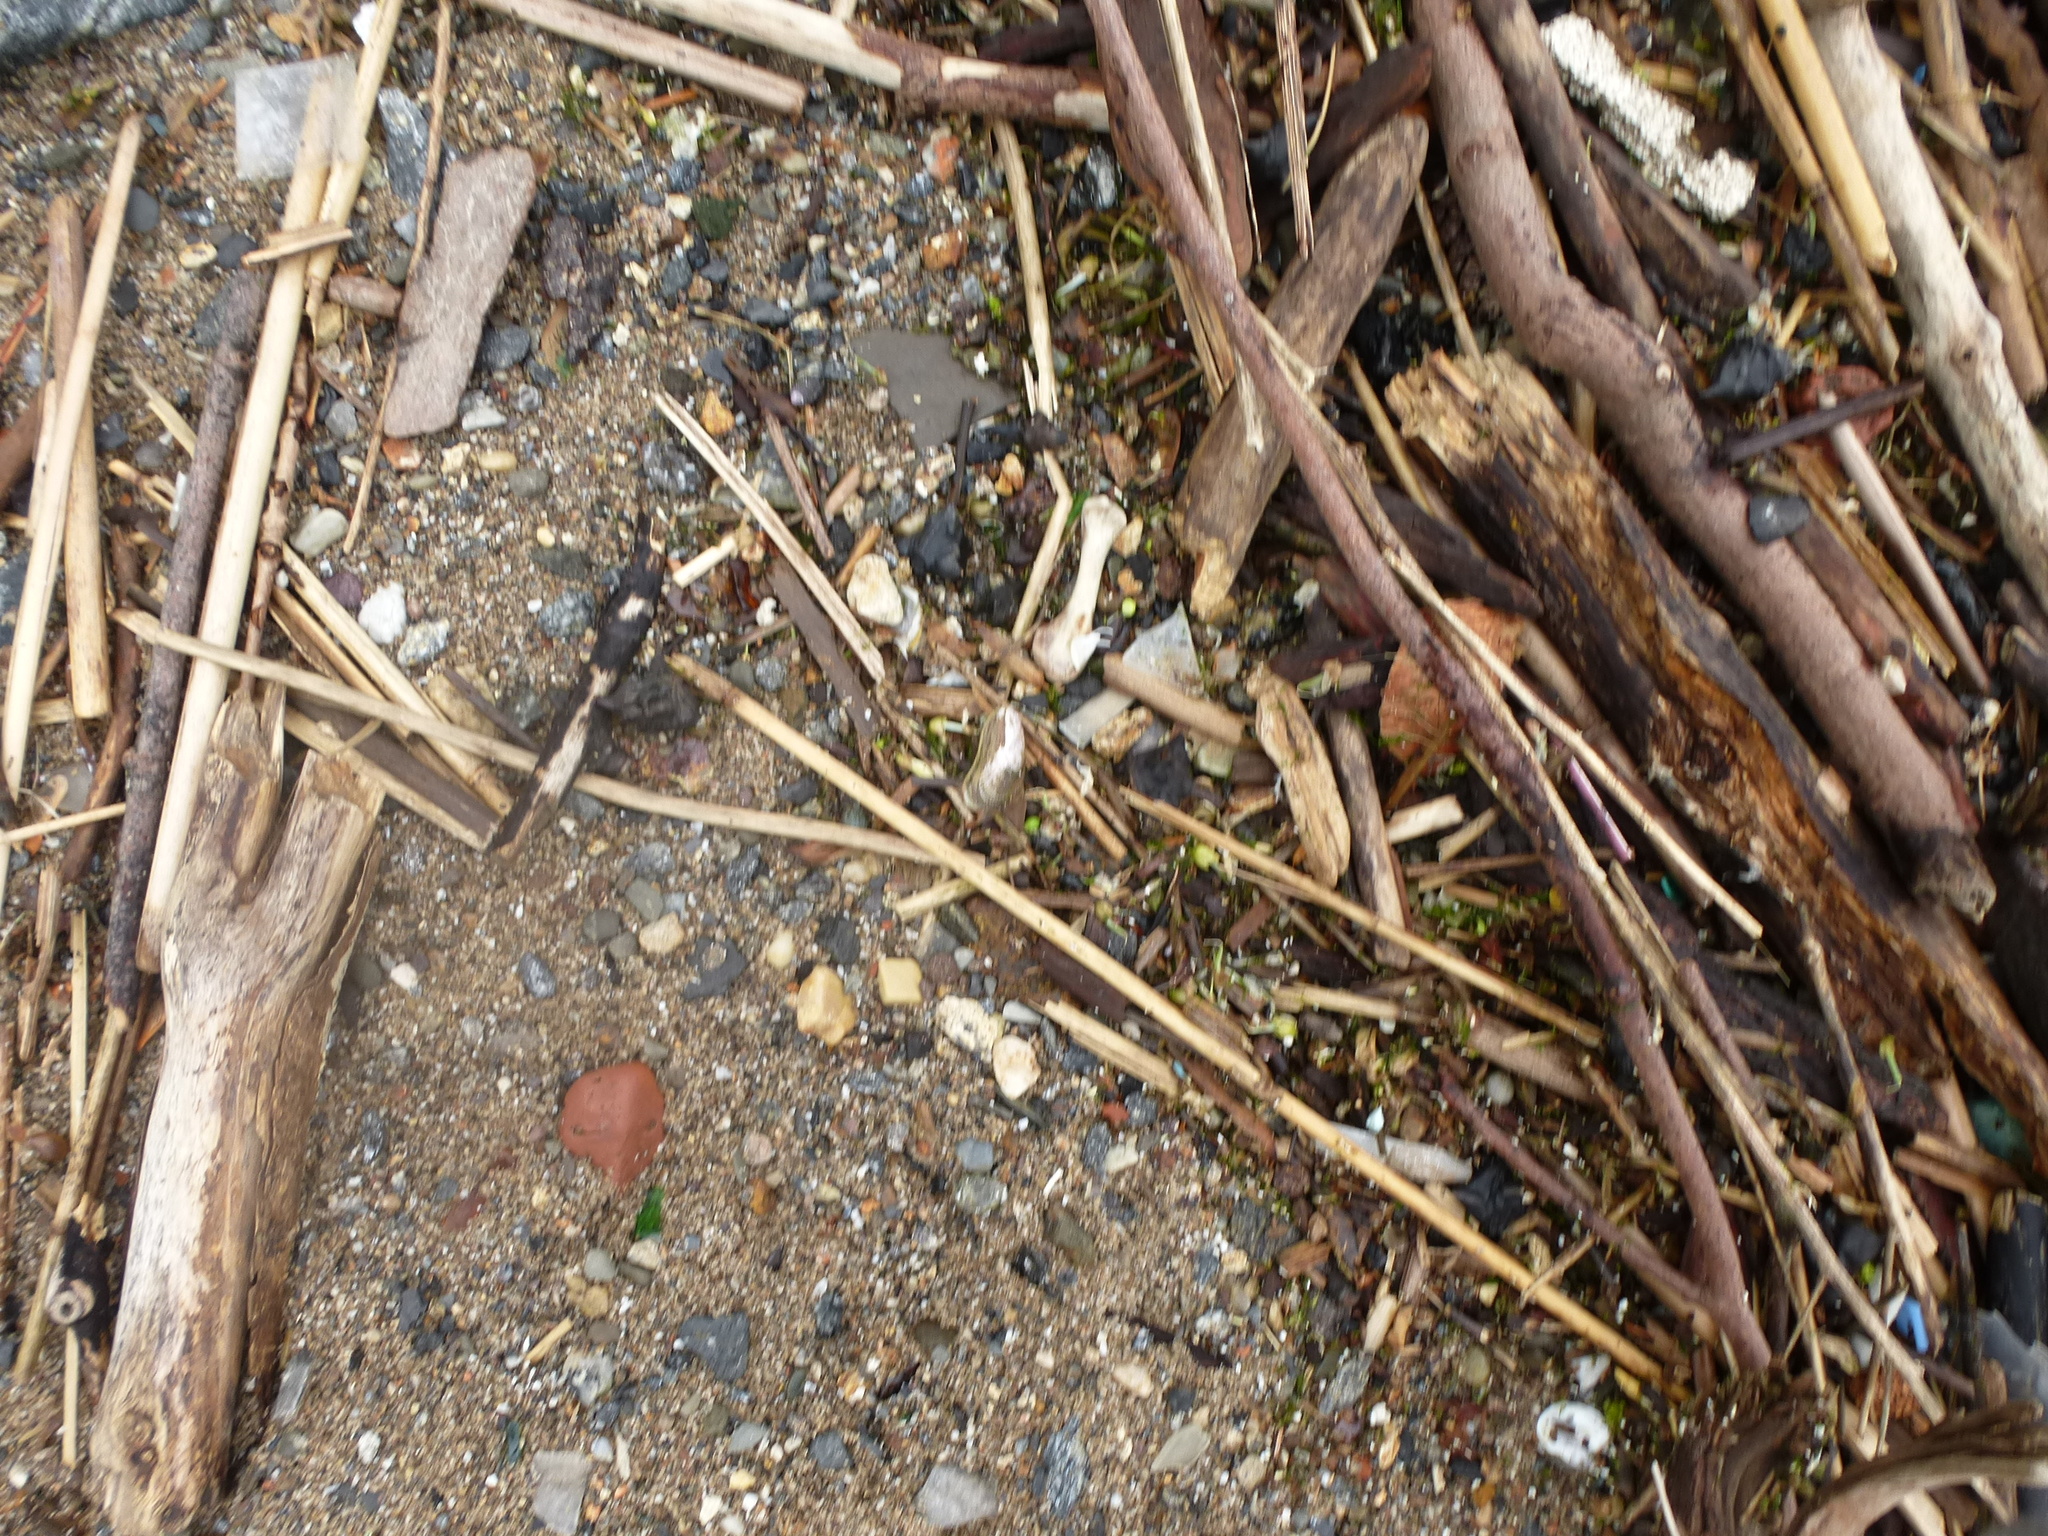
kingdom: Animalia
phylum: Mollusca
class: Bivalvia
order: Mytilida
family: Mytilidae
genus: Geukensia
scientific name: Geukensia demissa
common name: Ribbed mussel
